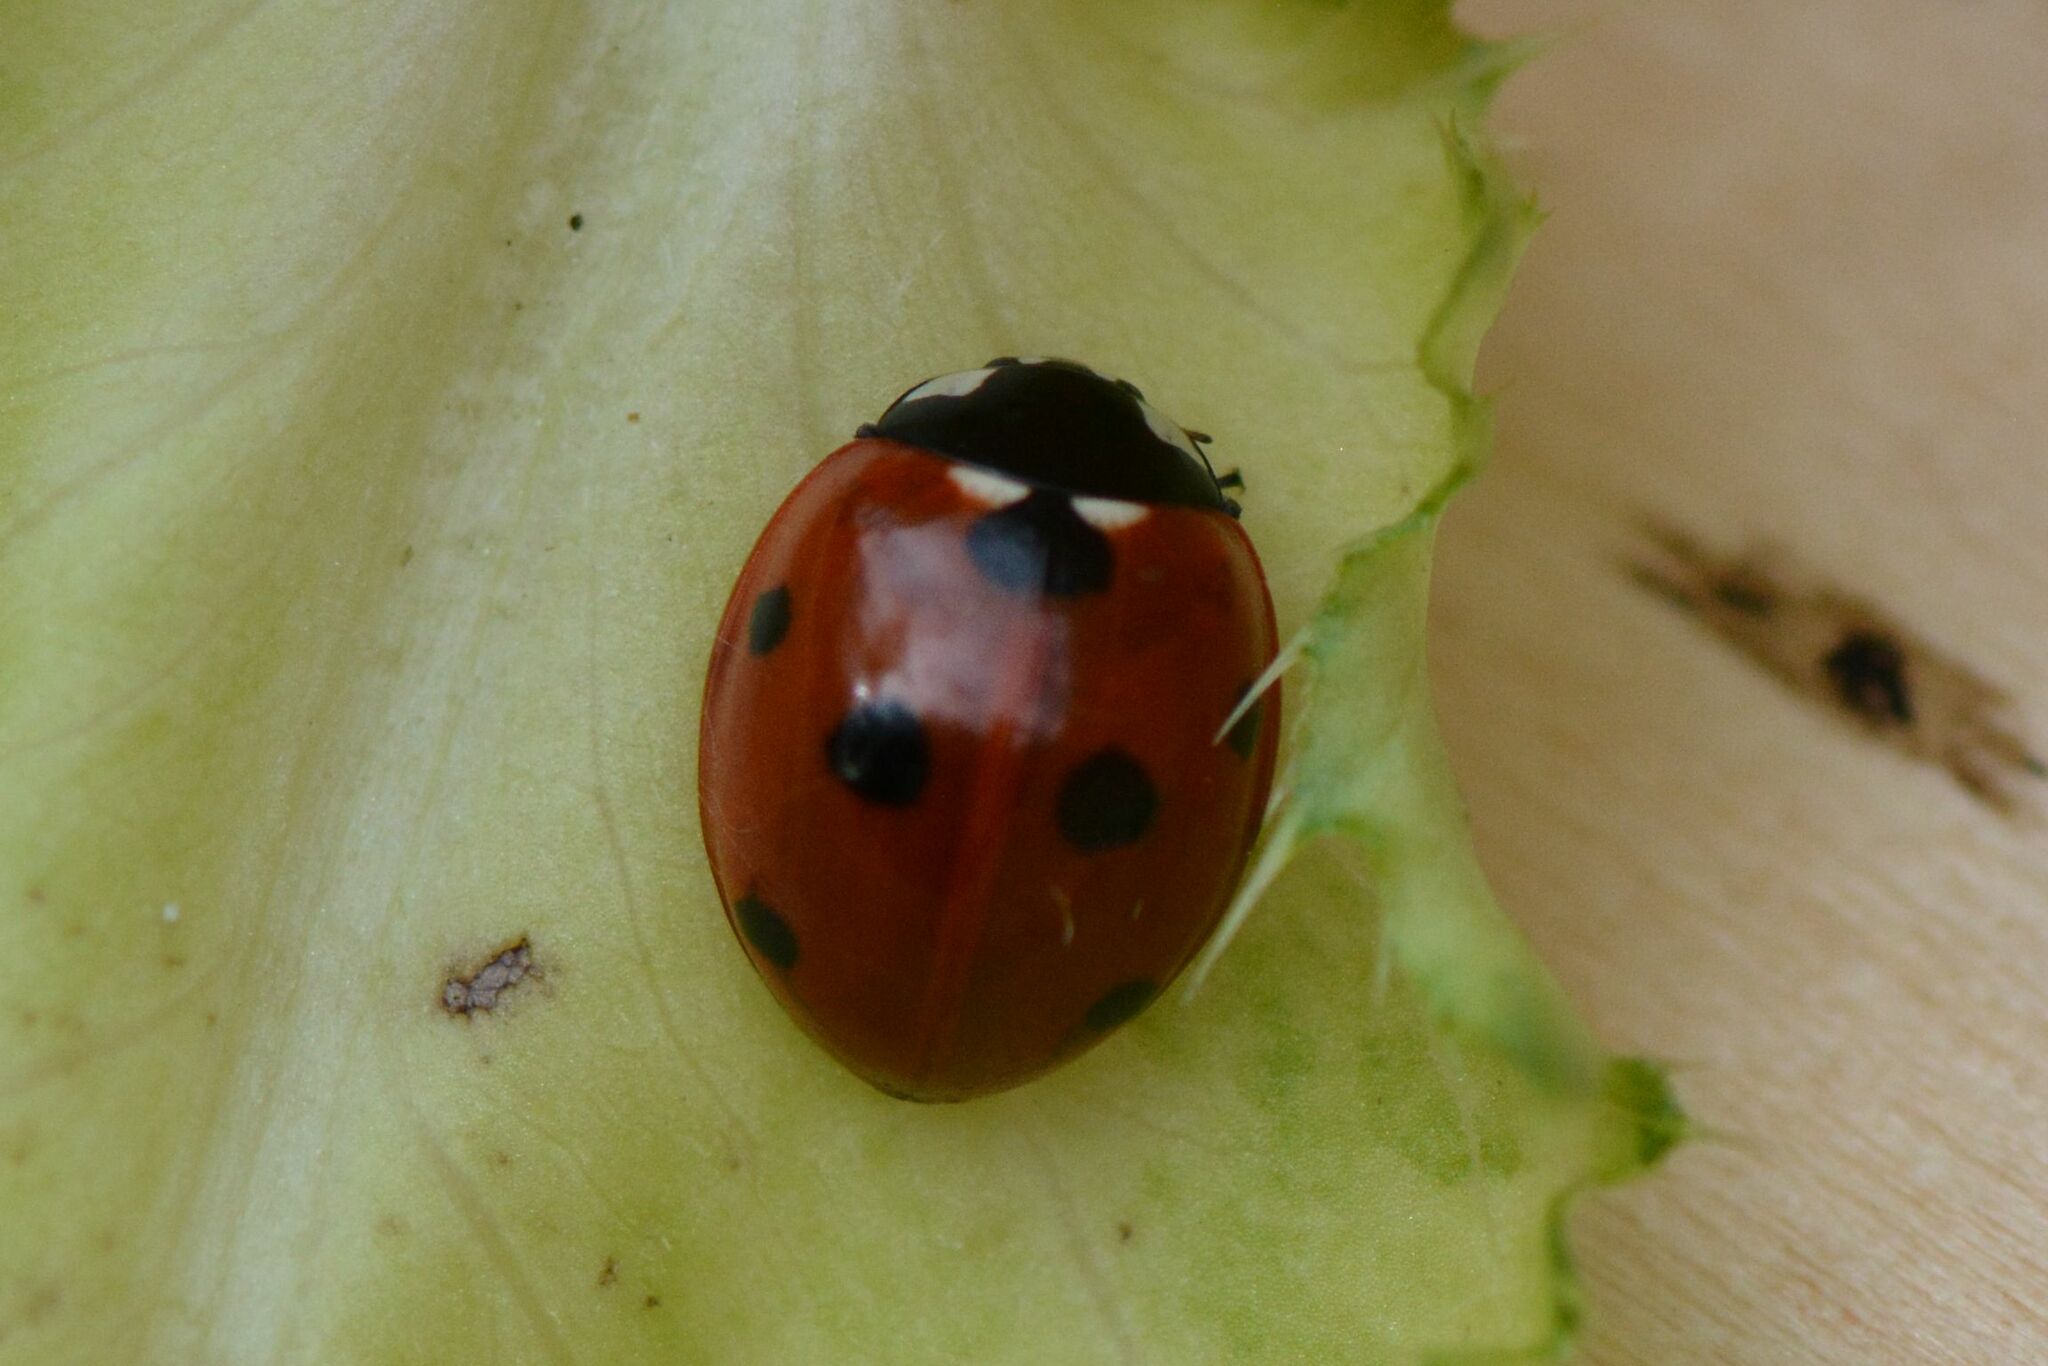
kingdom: Animalia
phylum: Arthropoda
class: Insecta
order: Coleoptera
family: Coccinellidae
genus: Coccinella
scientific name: Coccinella septempunctata
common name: Sevenspotted lady beetle
